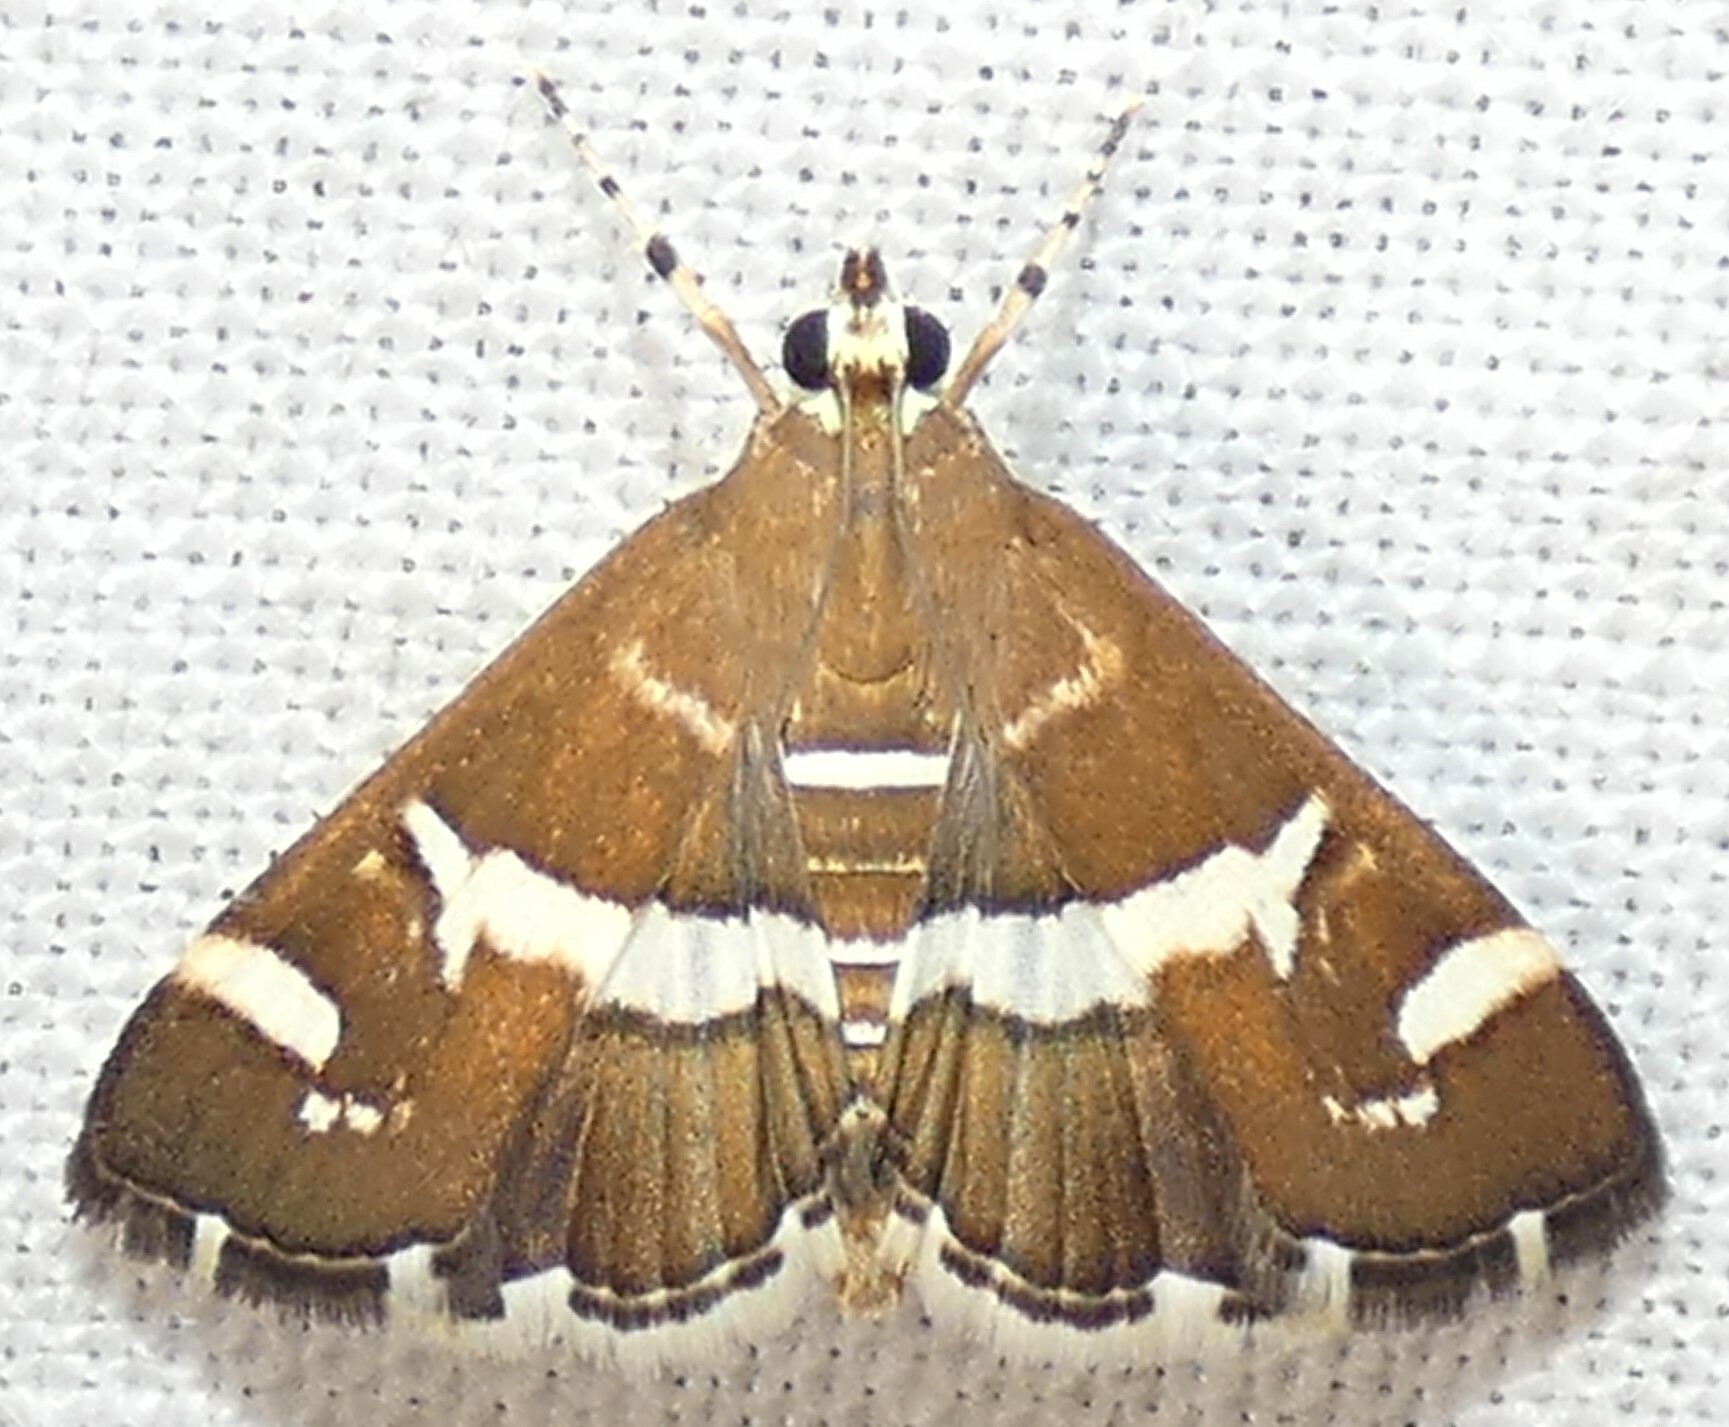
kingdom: Animalia
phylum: Arthropoda
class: Insecta
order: Lepidoptera
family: Crambidae
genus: Spoladea
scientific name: Spoladea recurvalis
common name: Beet webworm moth
